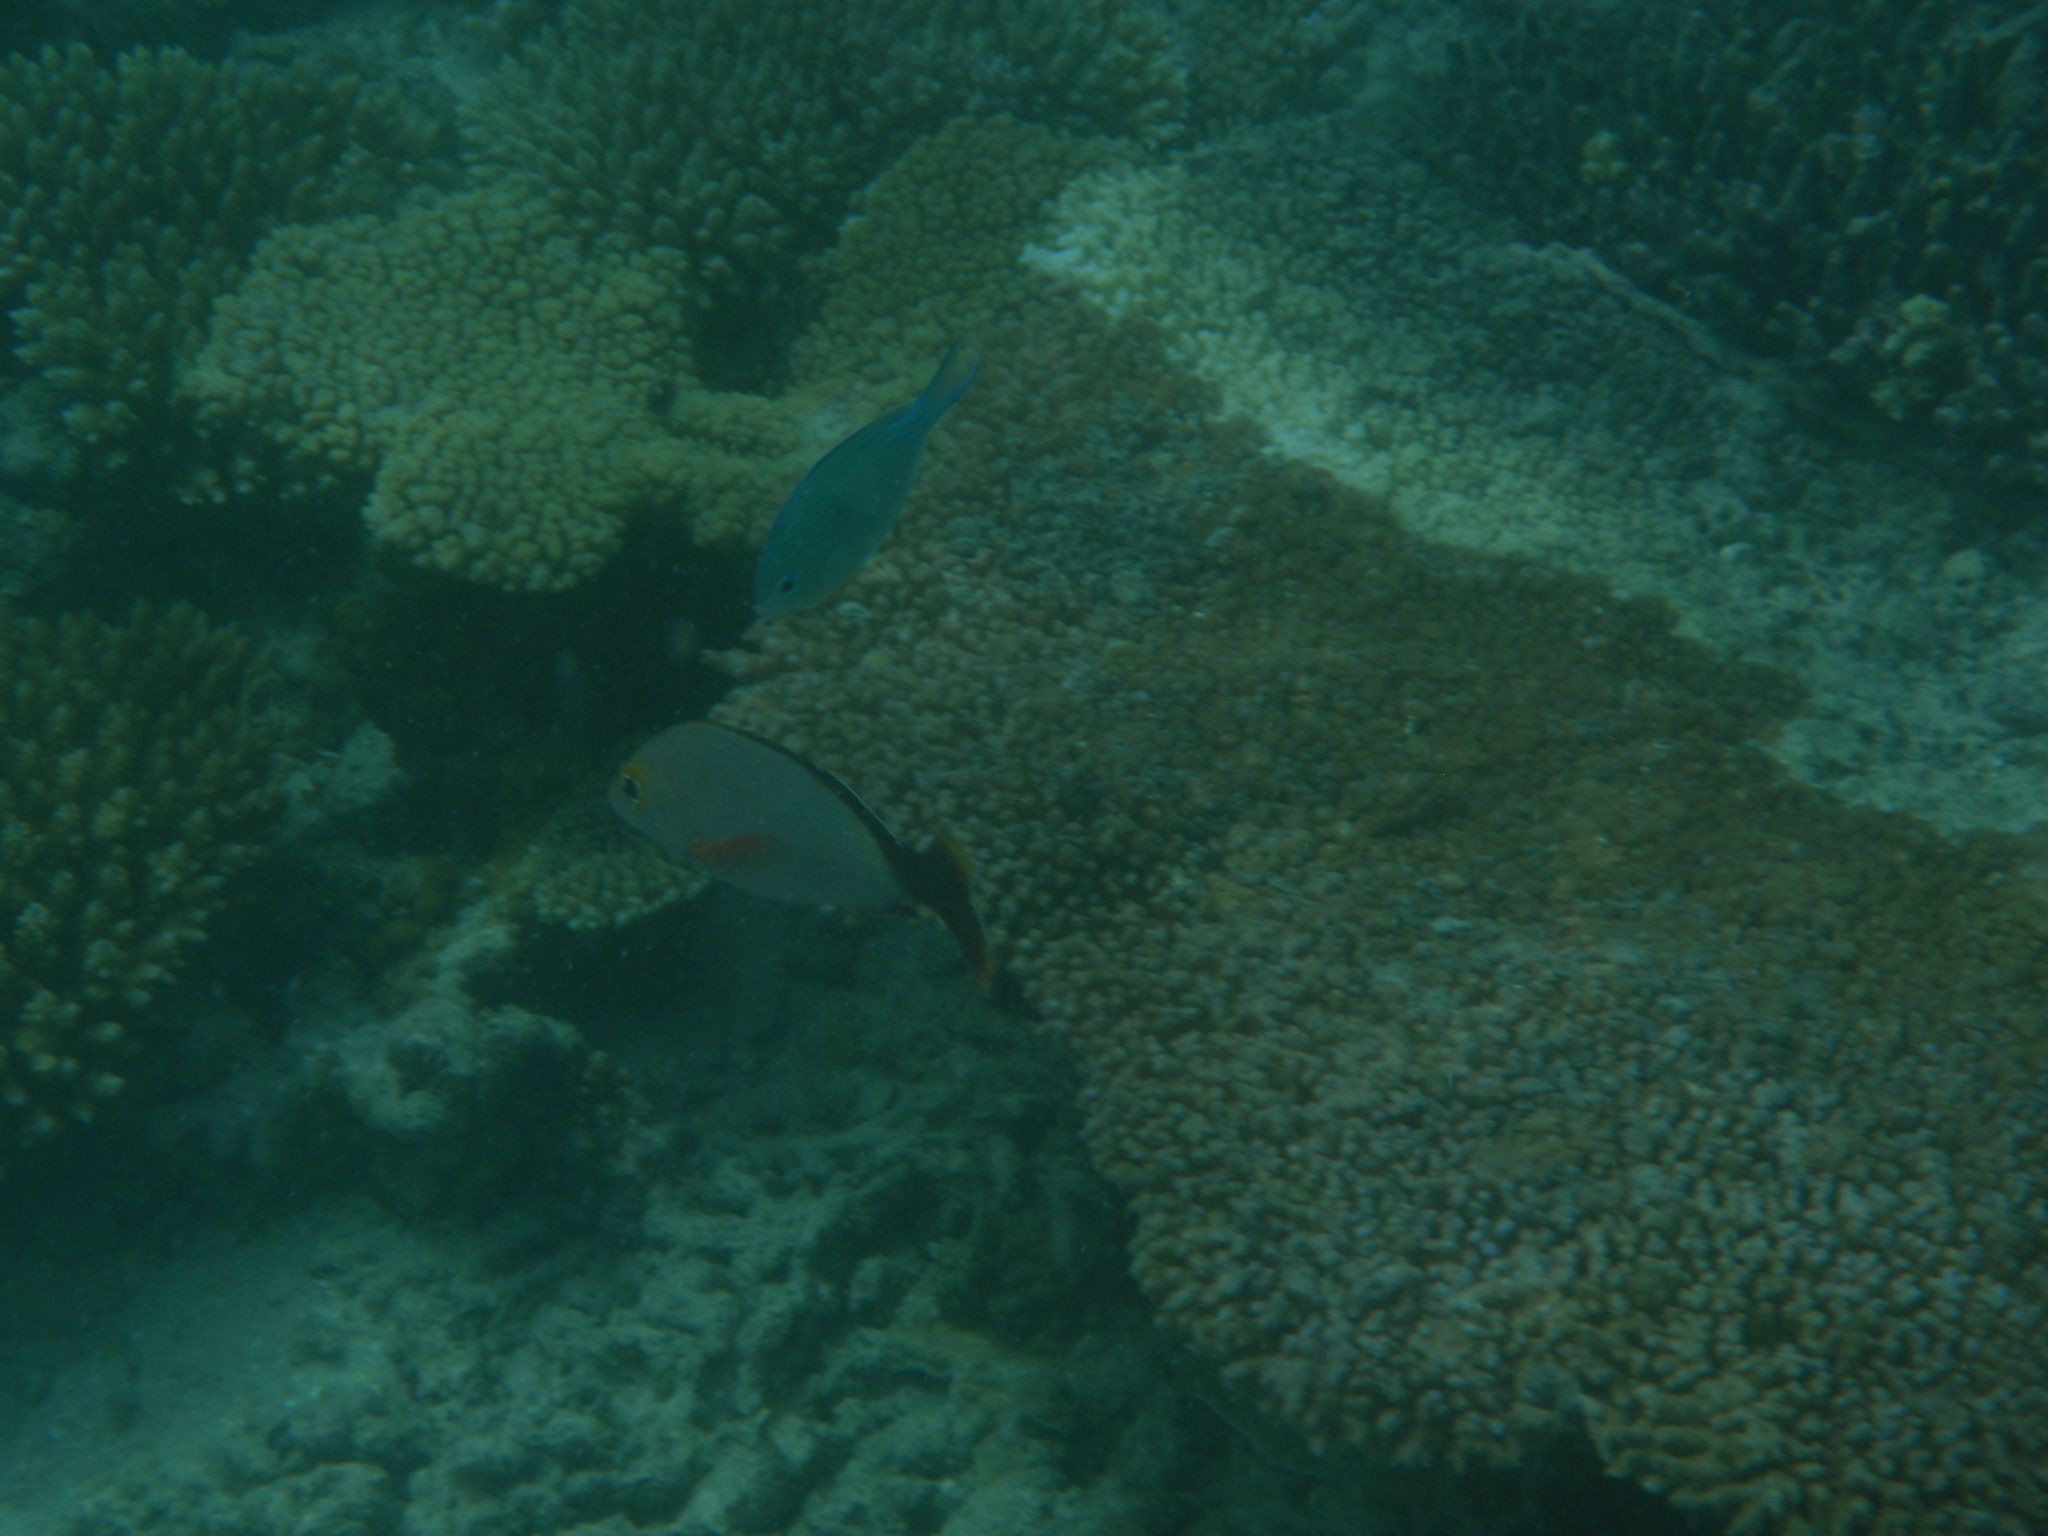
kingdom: Animalia
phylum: Chordata
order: Perciformes
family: Lutjanidae
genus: Lutjanus
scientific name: Lutjanus gibbus
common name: Humpback snapper
